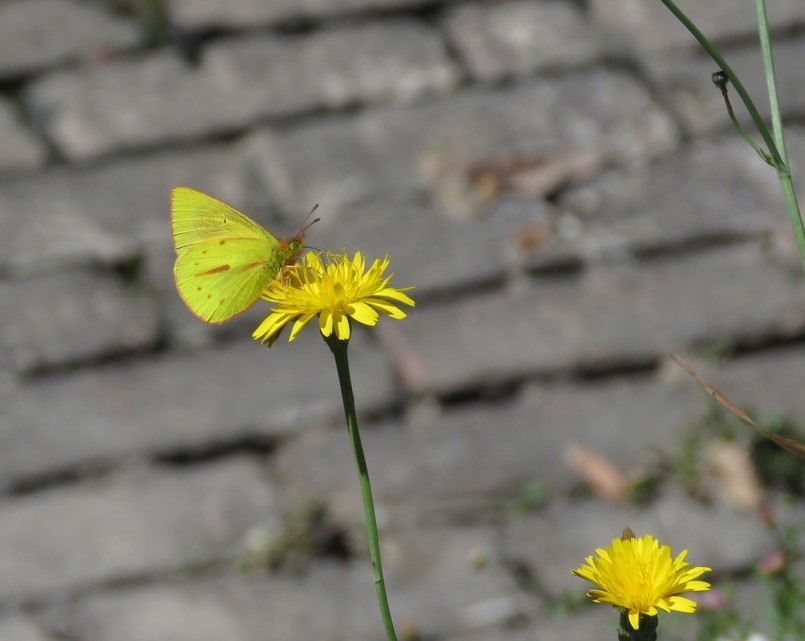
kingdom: Plantae
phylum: Tracheophyta
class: Magnoliopsida
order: Asterales
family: Asteraceae
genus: Hypochaeris
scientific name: Hypochaeris radicata
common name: Flatweed
